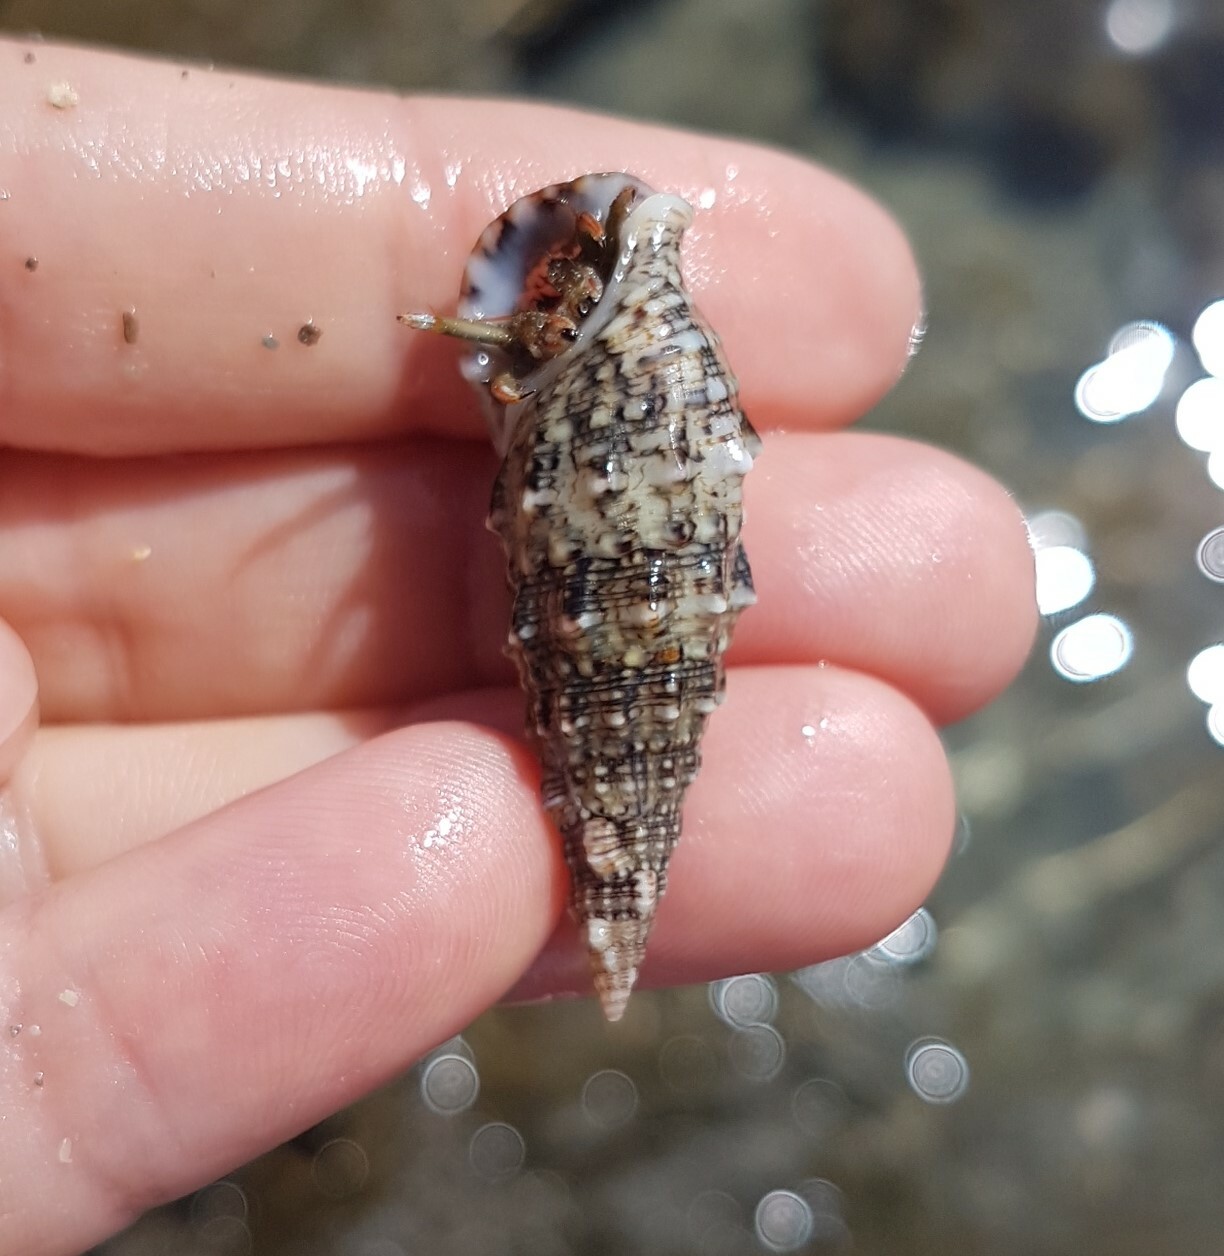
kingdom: Animalia
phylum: Mollusca
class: Gastropoda
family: Cerithiidae
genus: Cerithium
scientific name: Cerithium vulgatum
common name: European cerith
